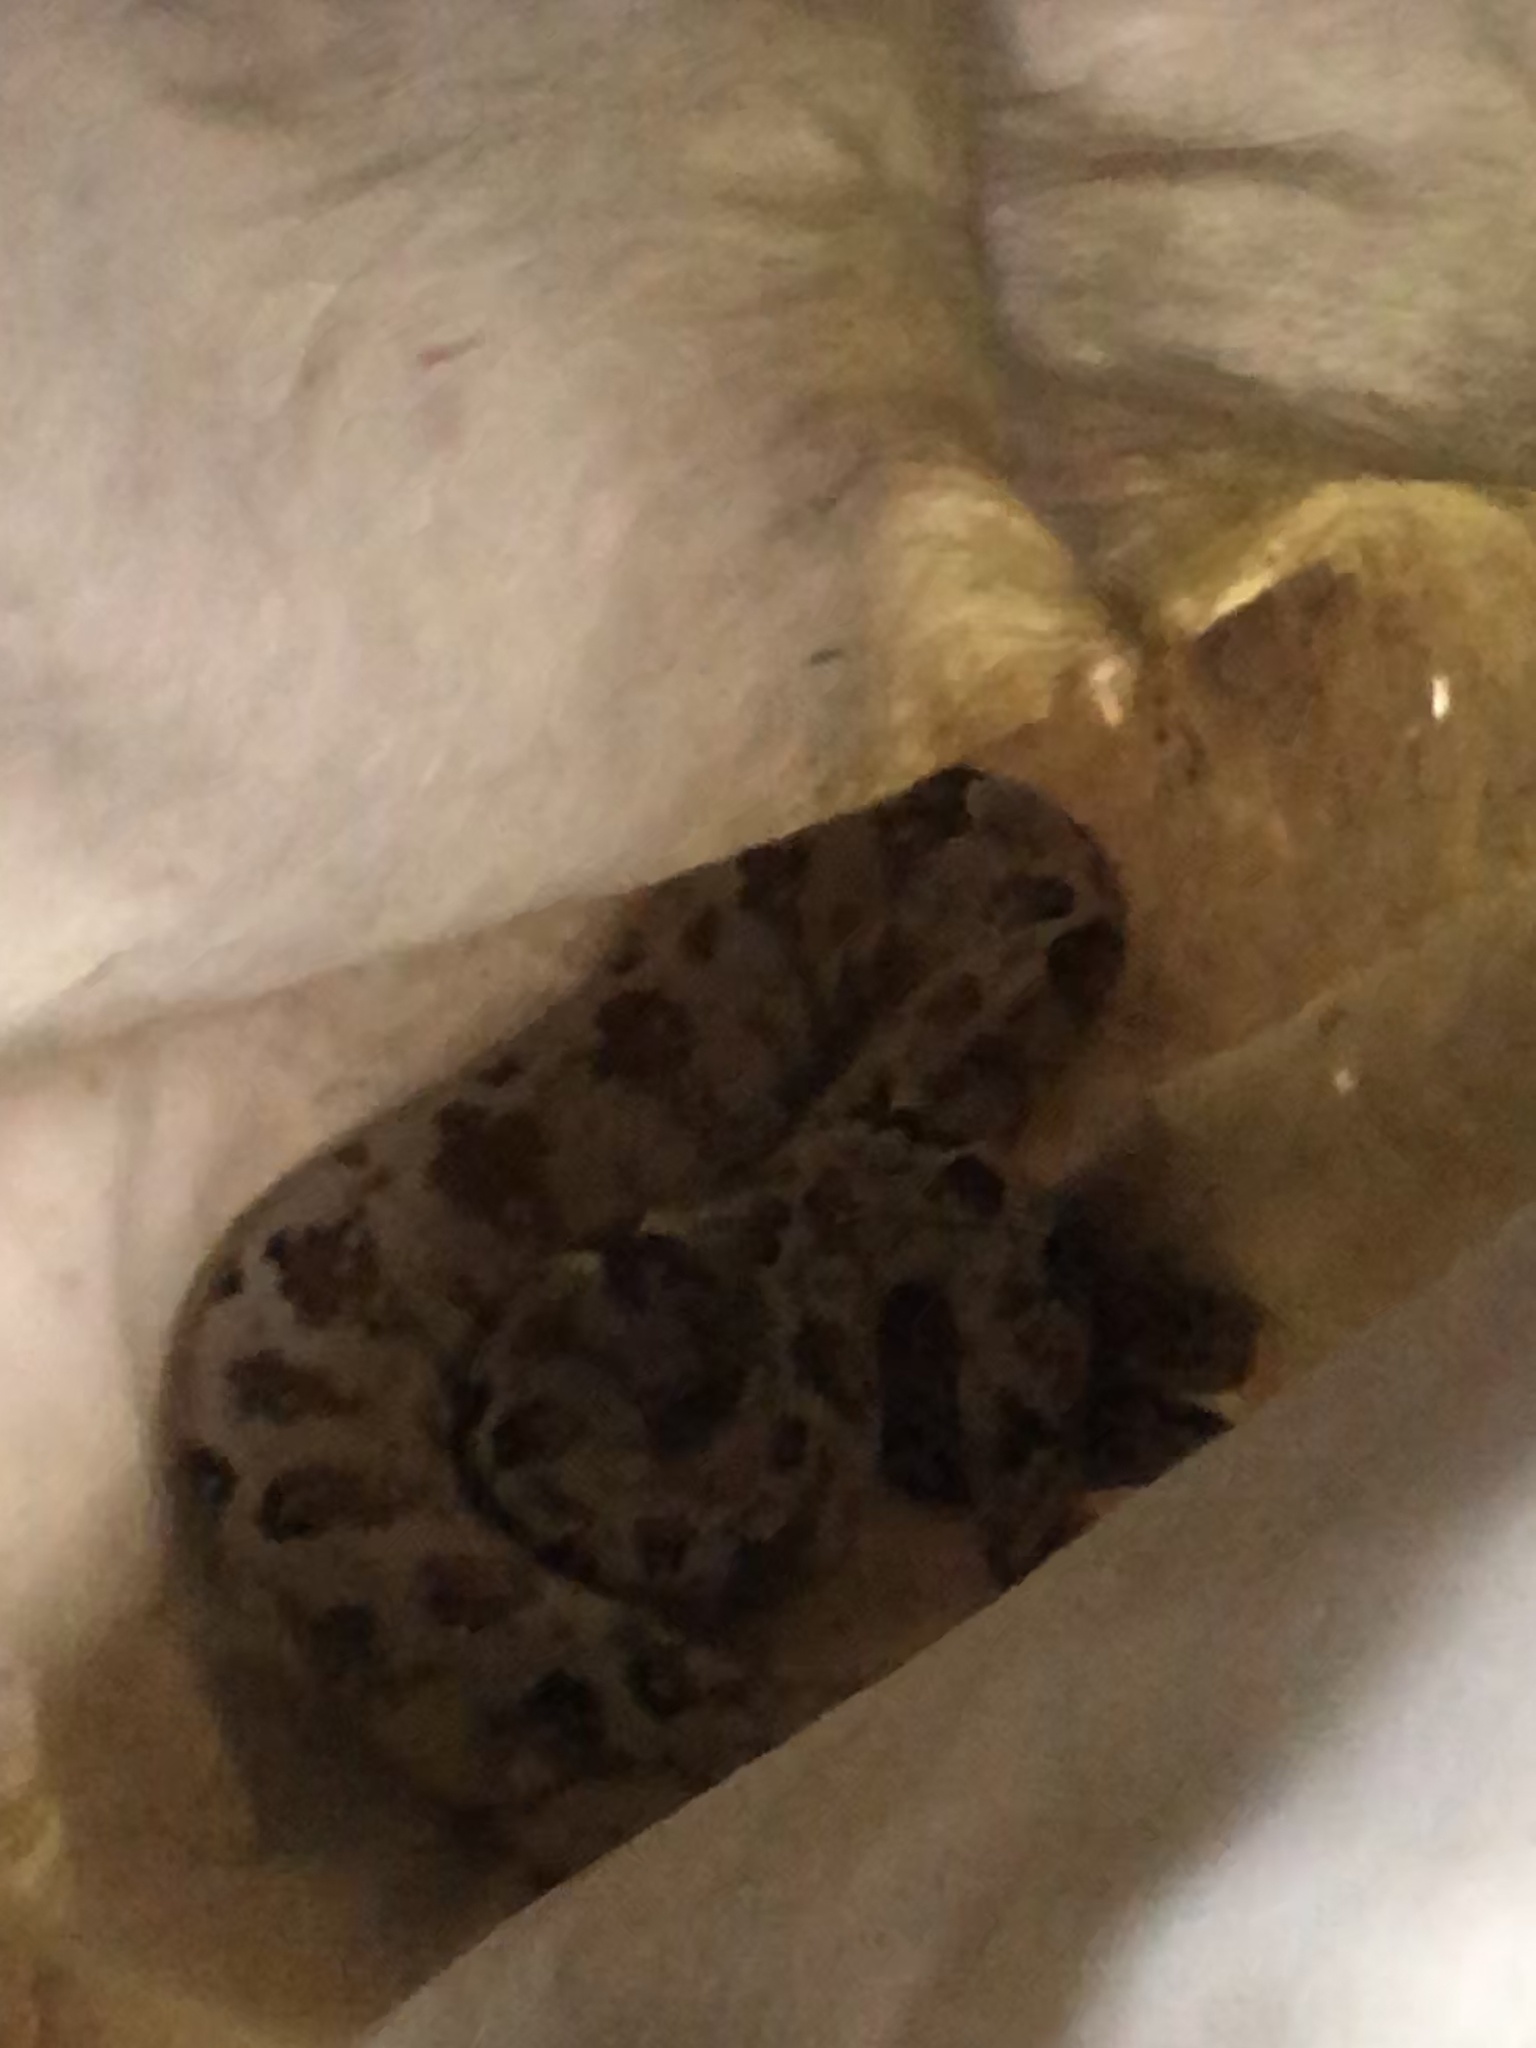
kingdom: Animalia
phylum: Chordata
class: Squamata
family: Boidae
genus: Corallus
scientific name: Corallus hortulana
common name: Garden tree boa
